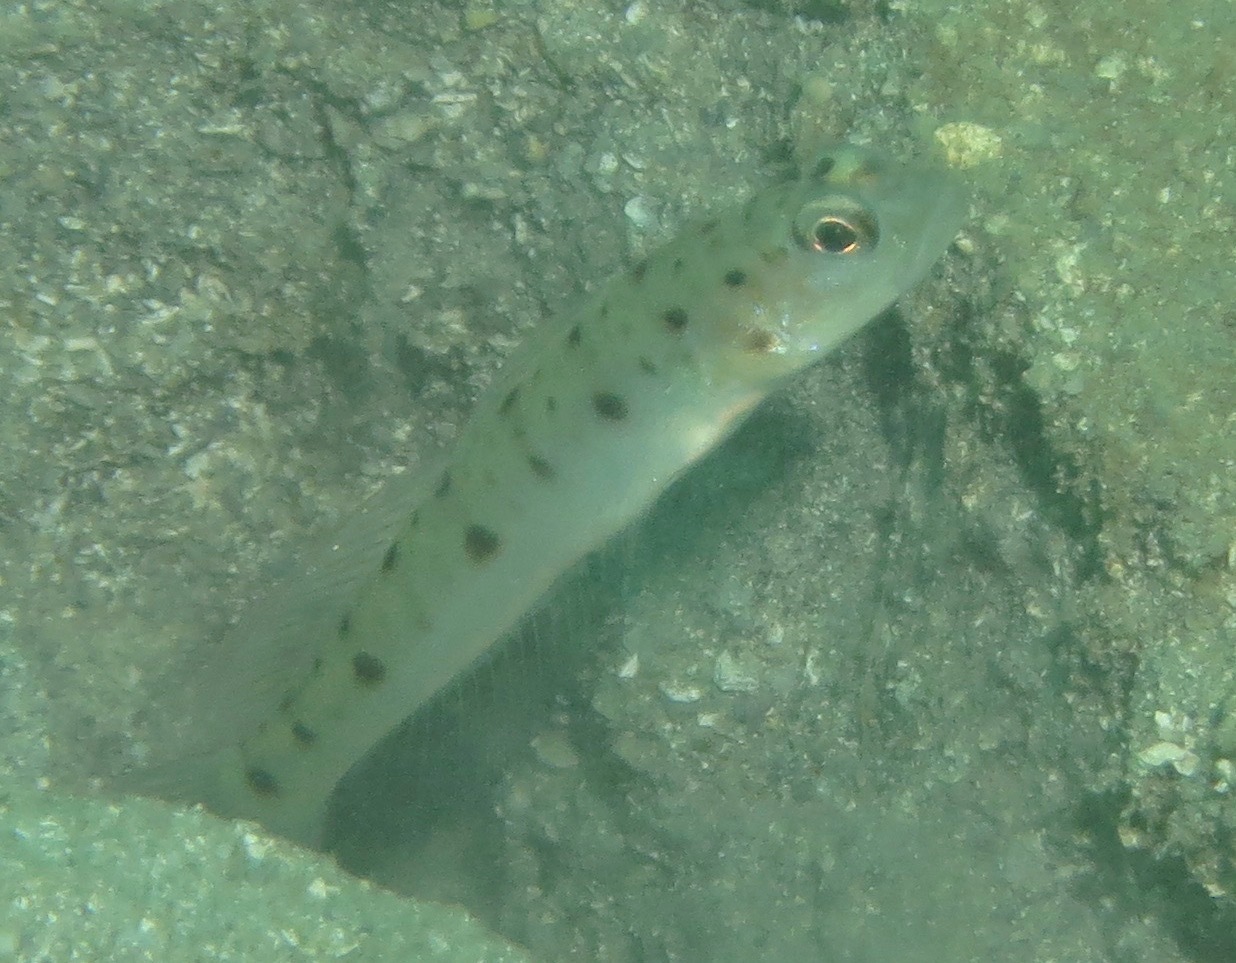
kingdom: Animalia
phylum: Chordata
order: Perciformes
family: Gobiidae
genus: Vanderhorstia
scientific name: Vanderhorstia ambanoro
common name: Ambanoro goby
